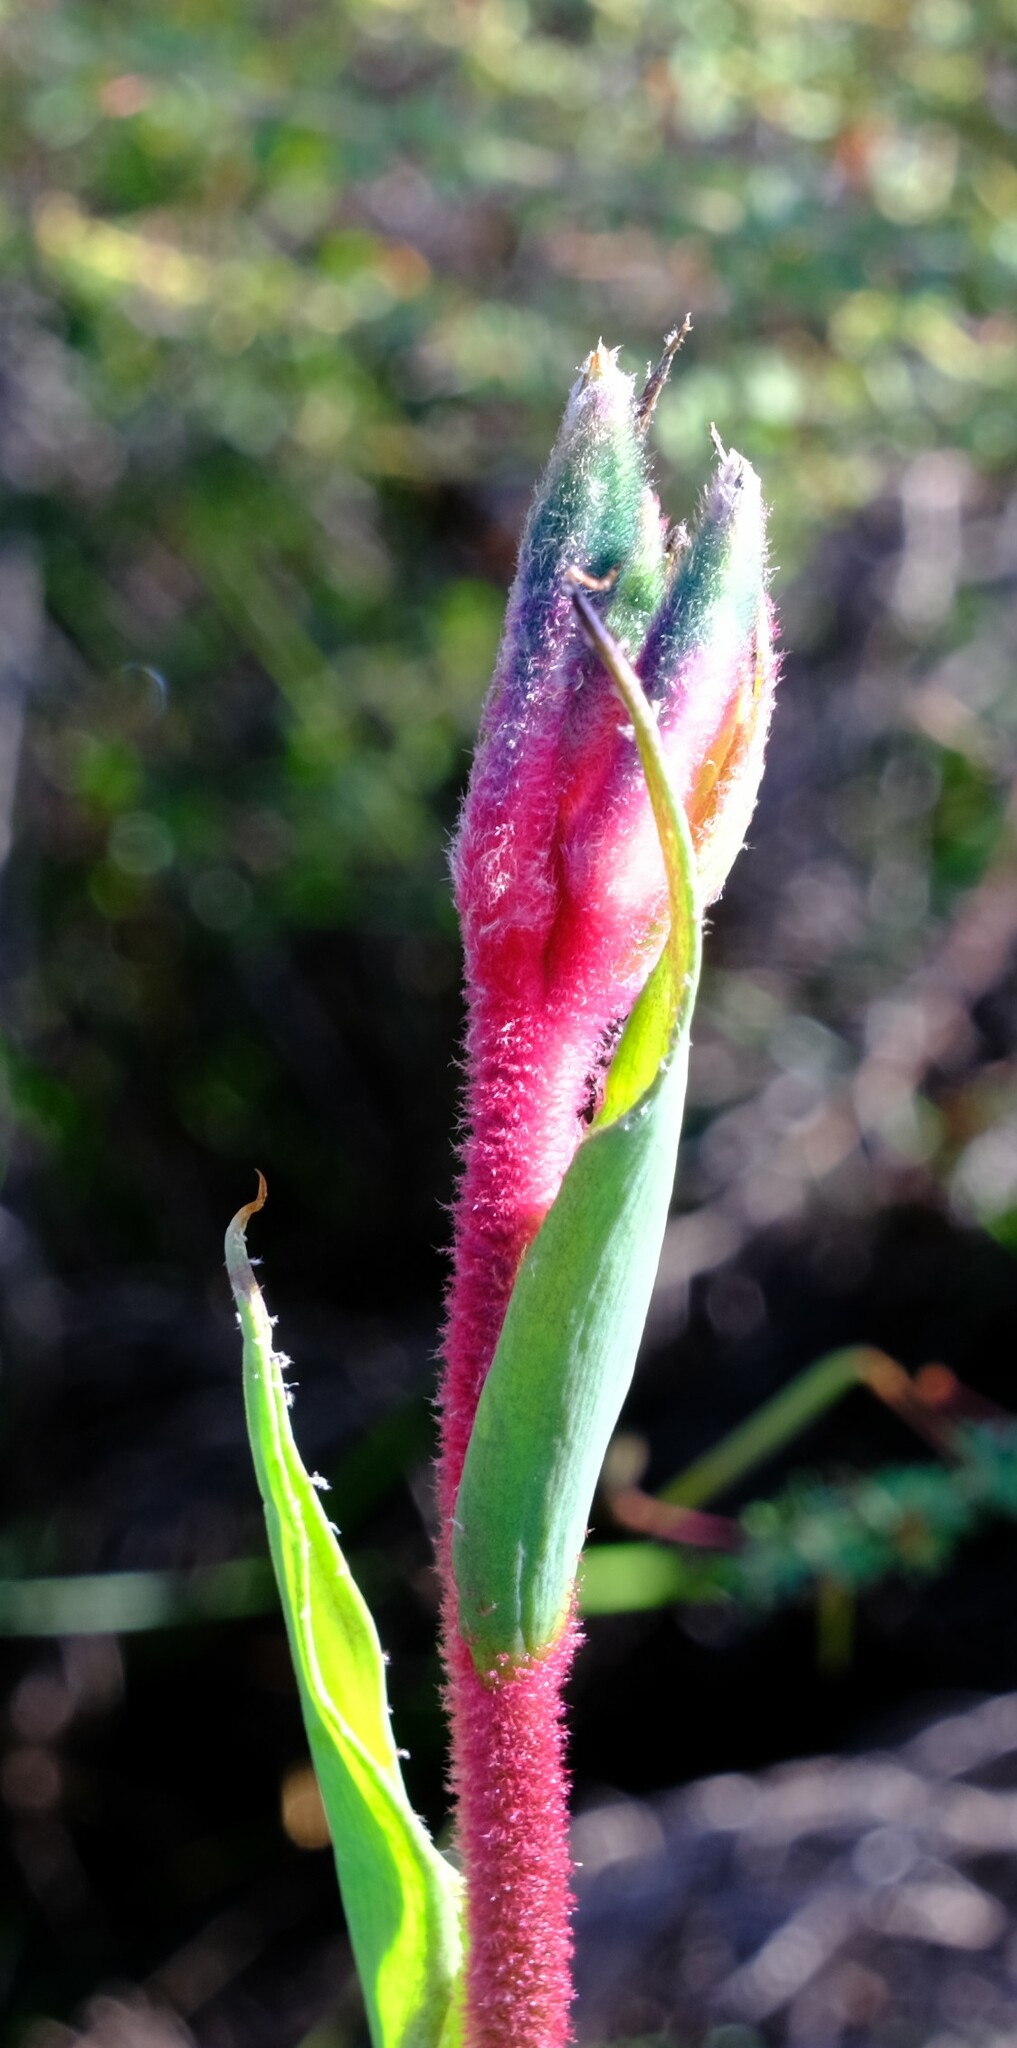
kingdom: Plantae
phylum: Tracheophyta
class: Liliopsida
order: Commelinales
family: Haemodoraceae
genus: Anigozanthos
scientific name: Anigozanthos manglesii
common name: Mangles's kangaroo-paw
